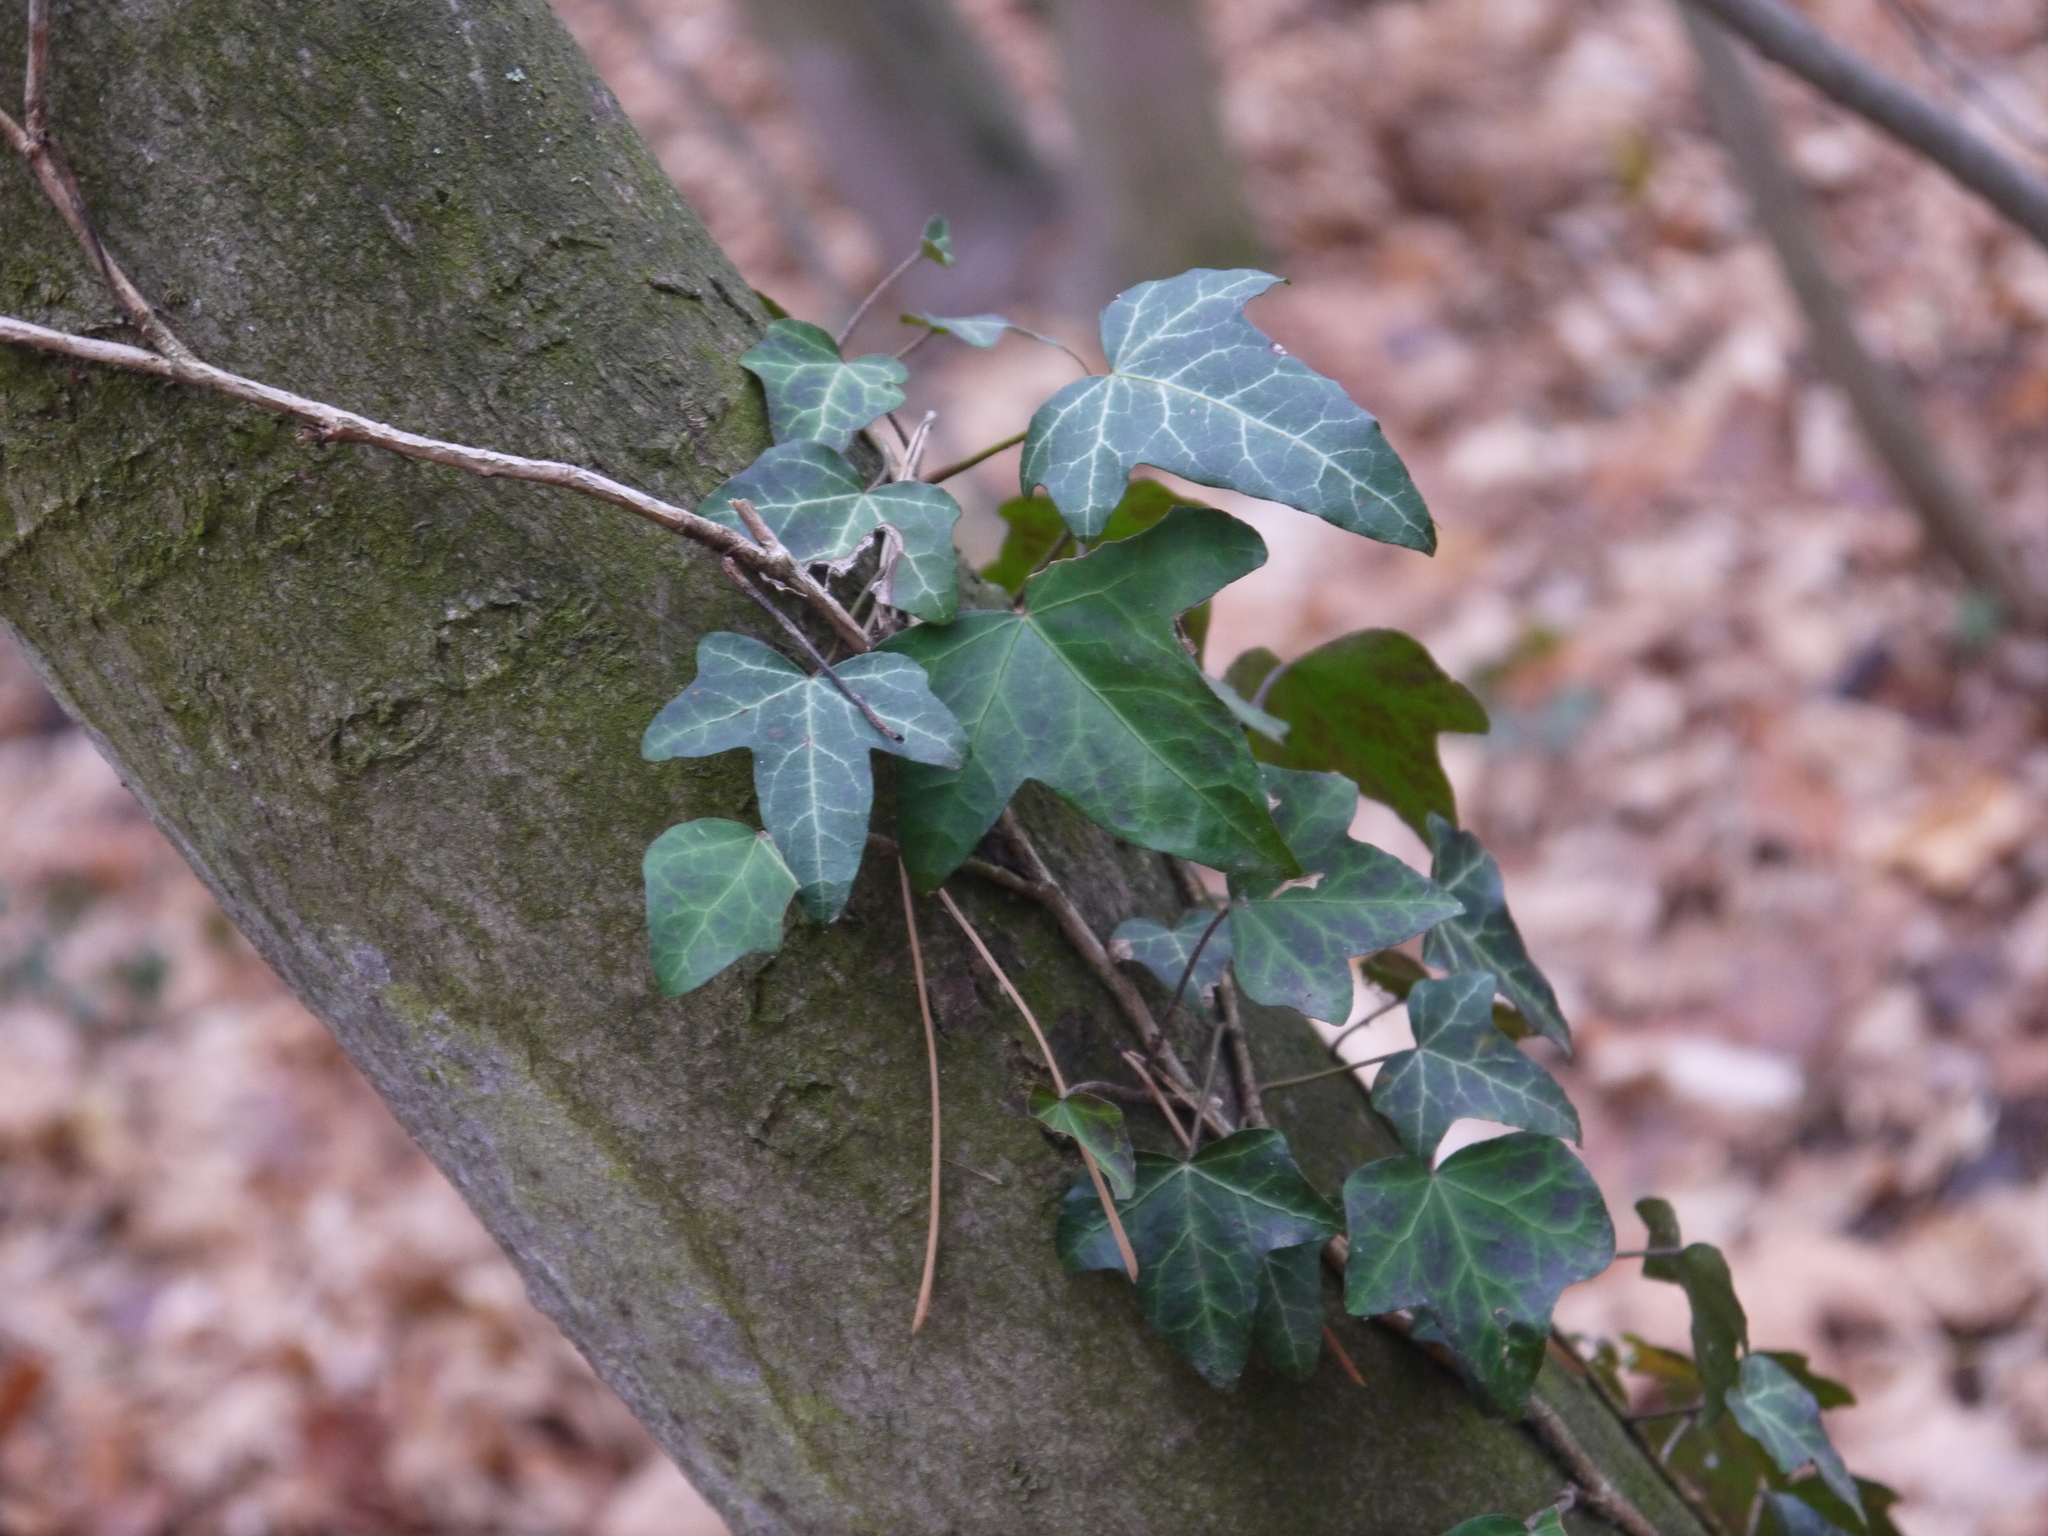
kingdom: Plantae
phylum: Tracheophyta
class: Magnoliopsida
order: Apiales
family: Araliaceae
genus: Hedera
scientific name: Hedera helix
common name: Ivy
